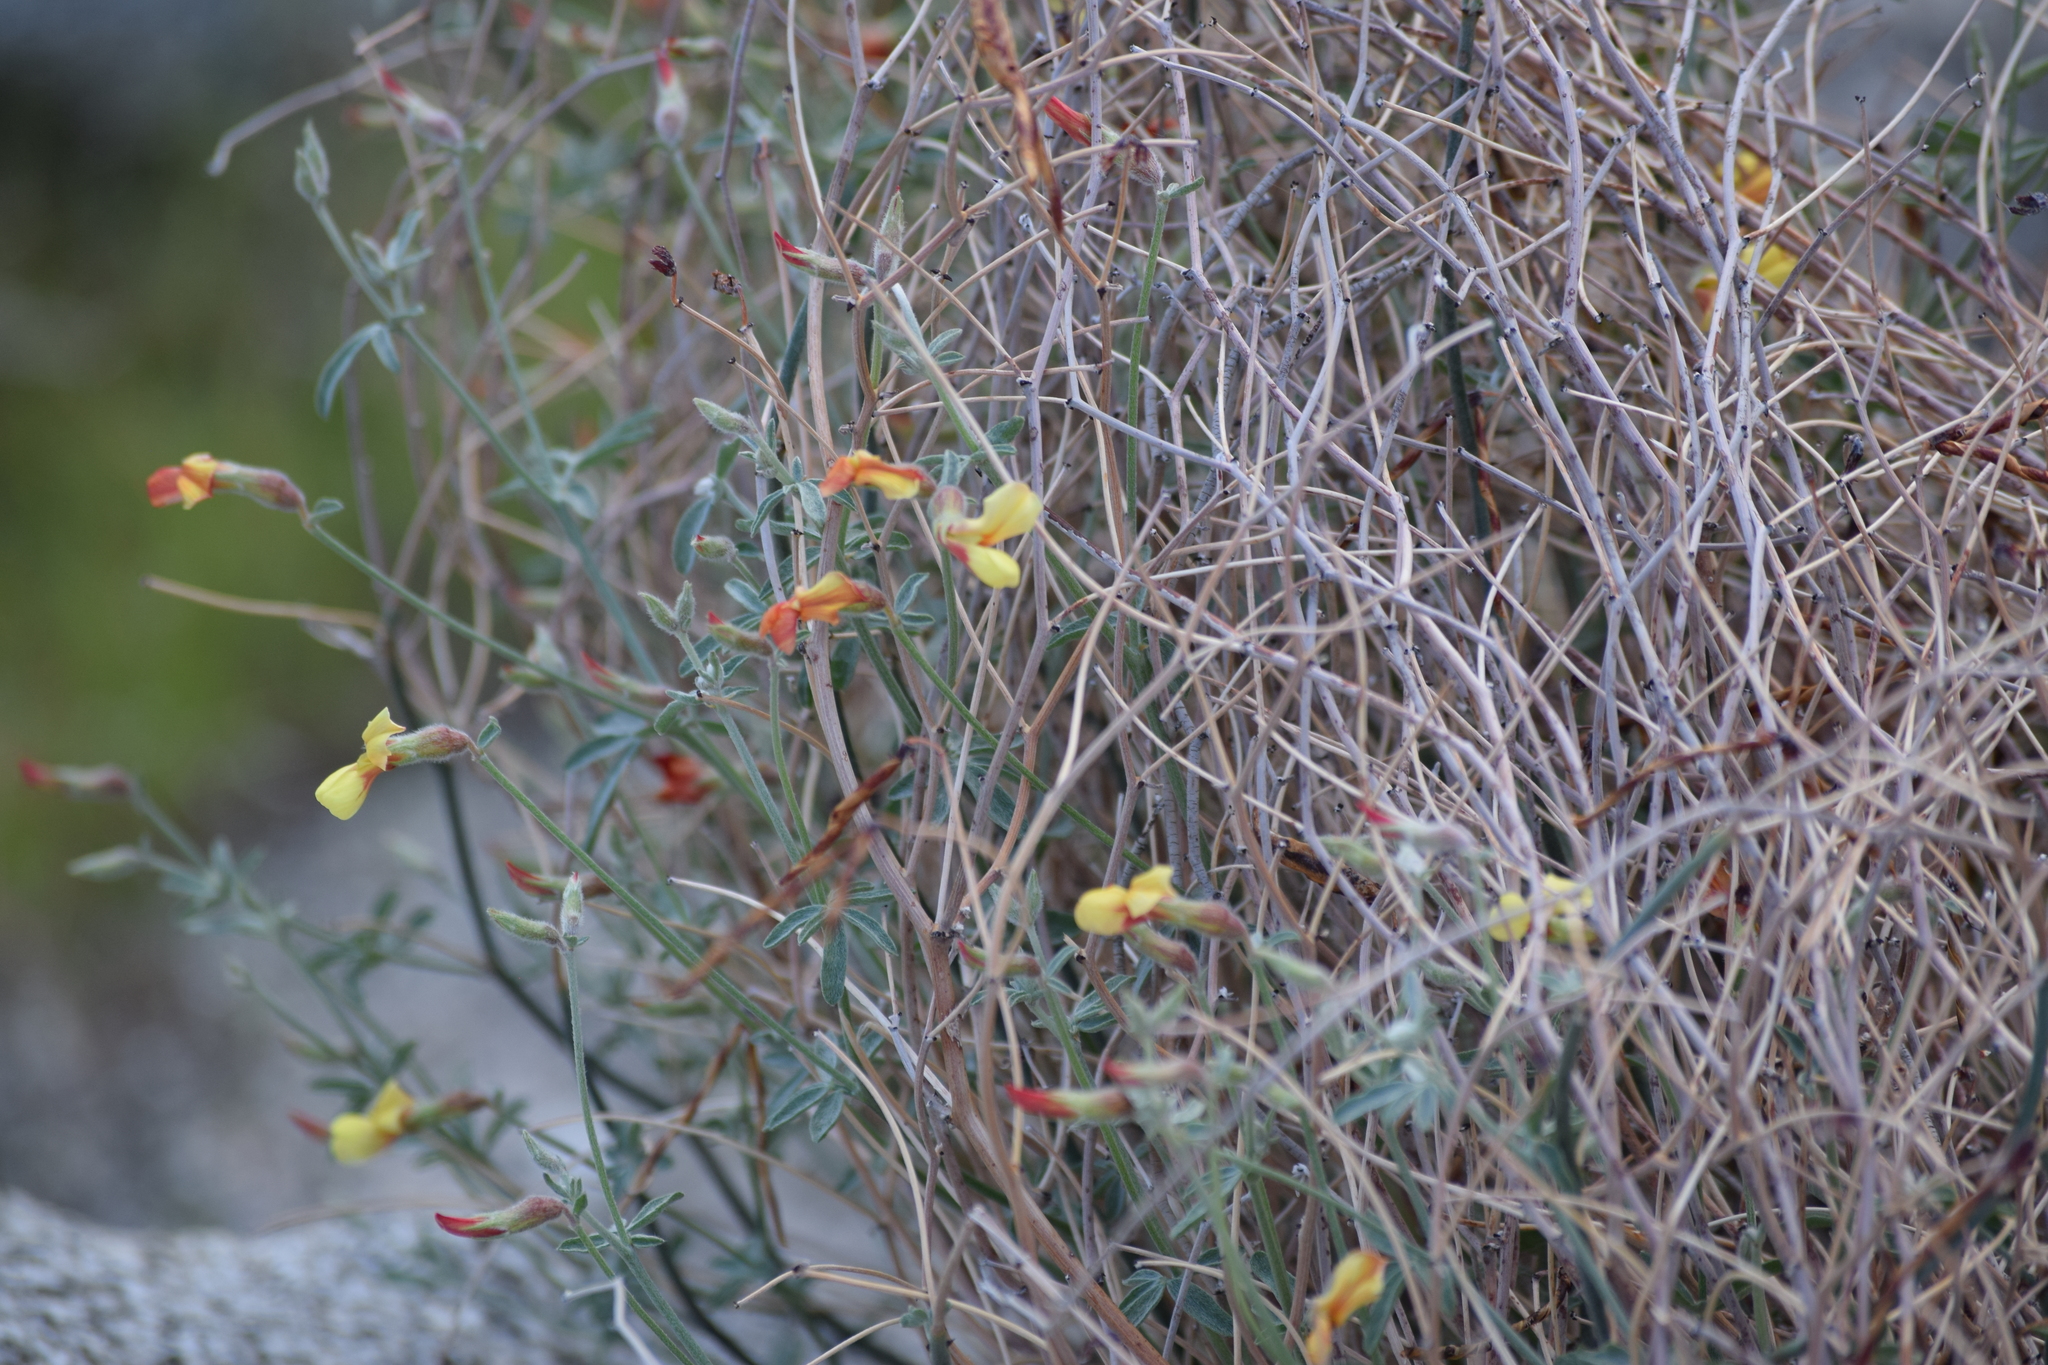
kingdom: Plantae
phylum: Tracheophyta
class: Magnoliopsida
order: Fabales
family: Fabaceae
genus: Acmispon
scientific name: Acmispon rigidus
